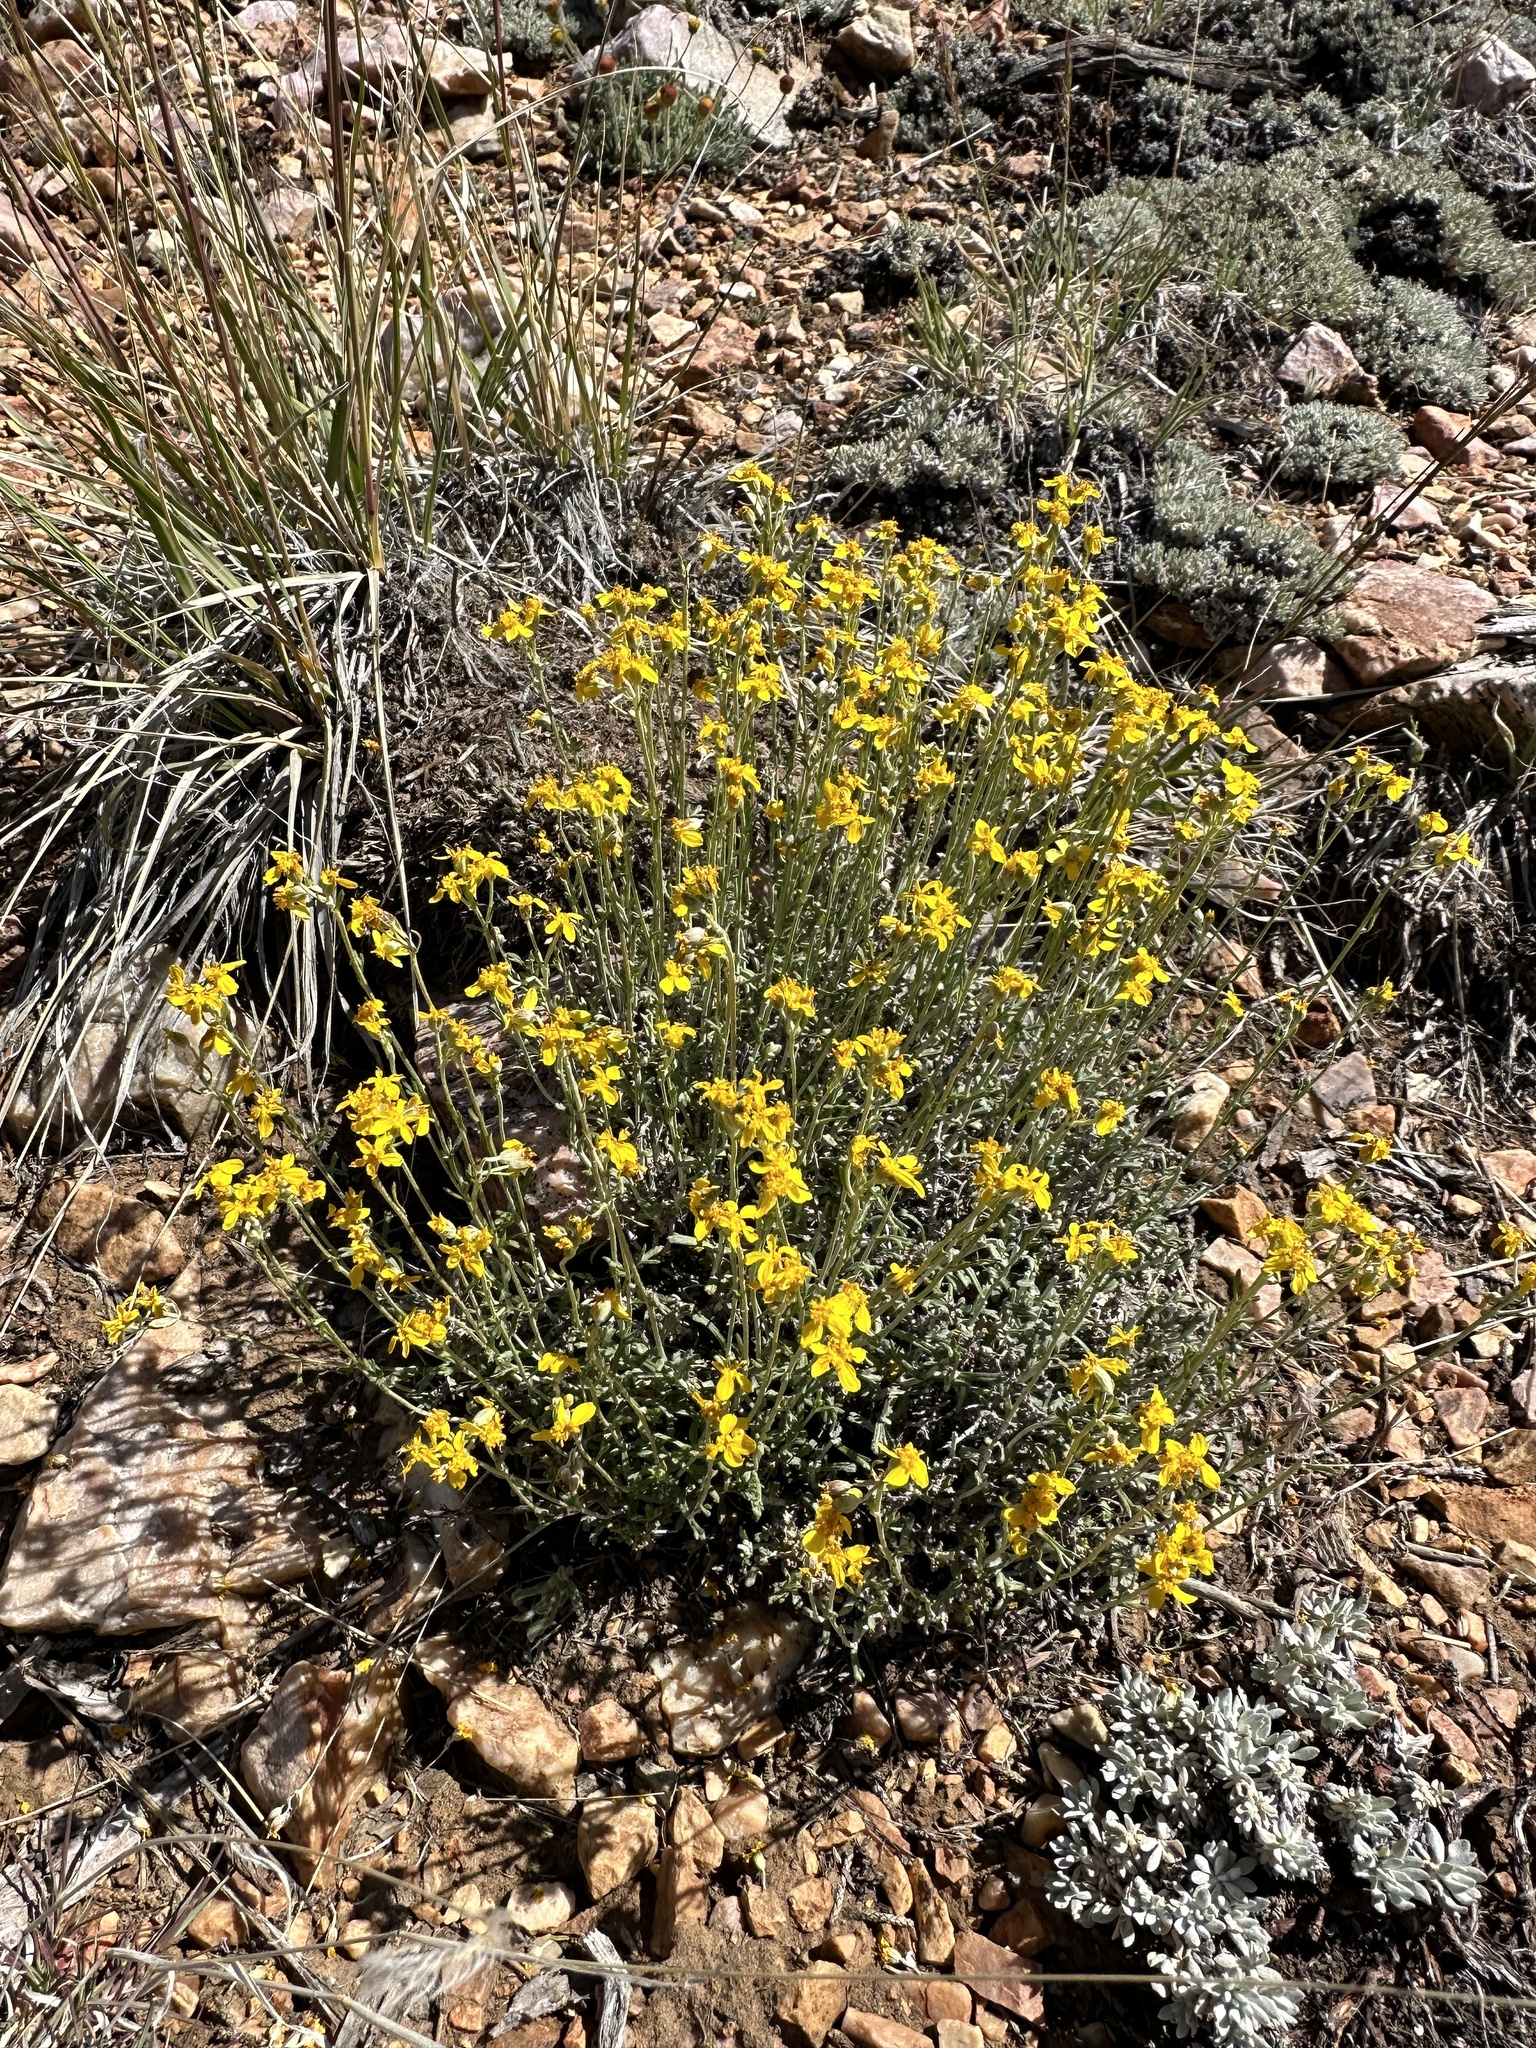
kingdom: Plantae
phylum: Tracheophyta
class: Magnoliopsida
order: Asterales
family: Asteraceae
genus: Eriophyllum
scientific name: Eriophyllum confertiflorum
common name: Golden-yarrow
